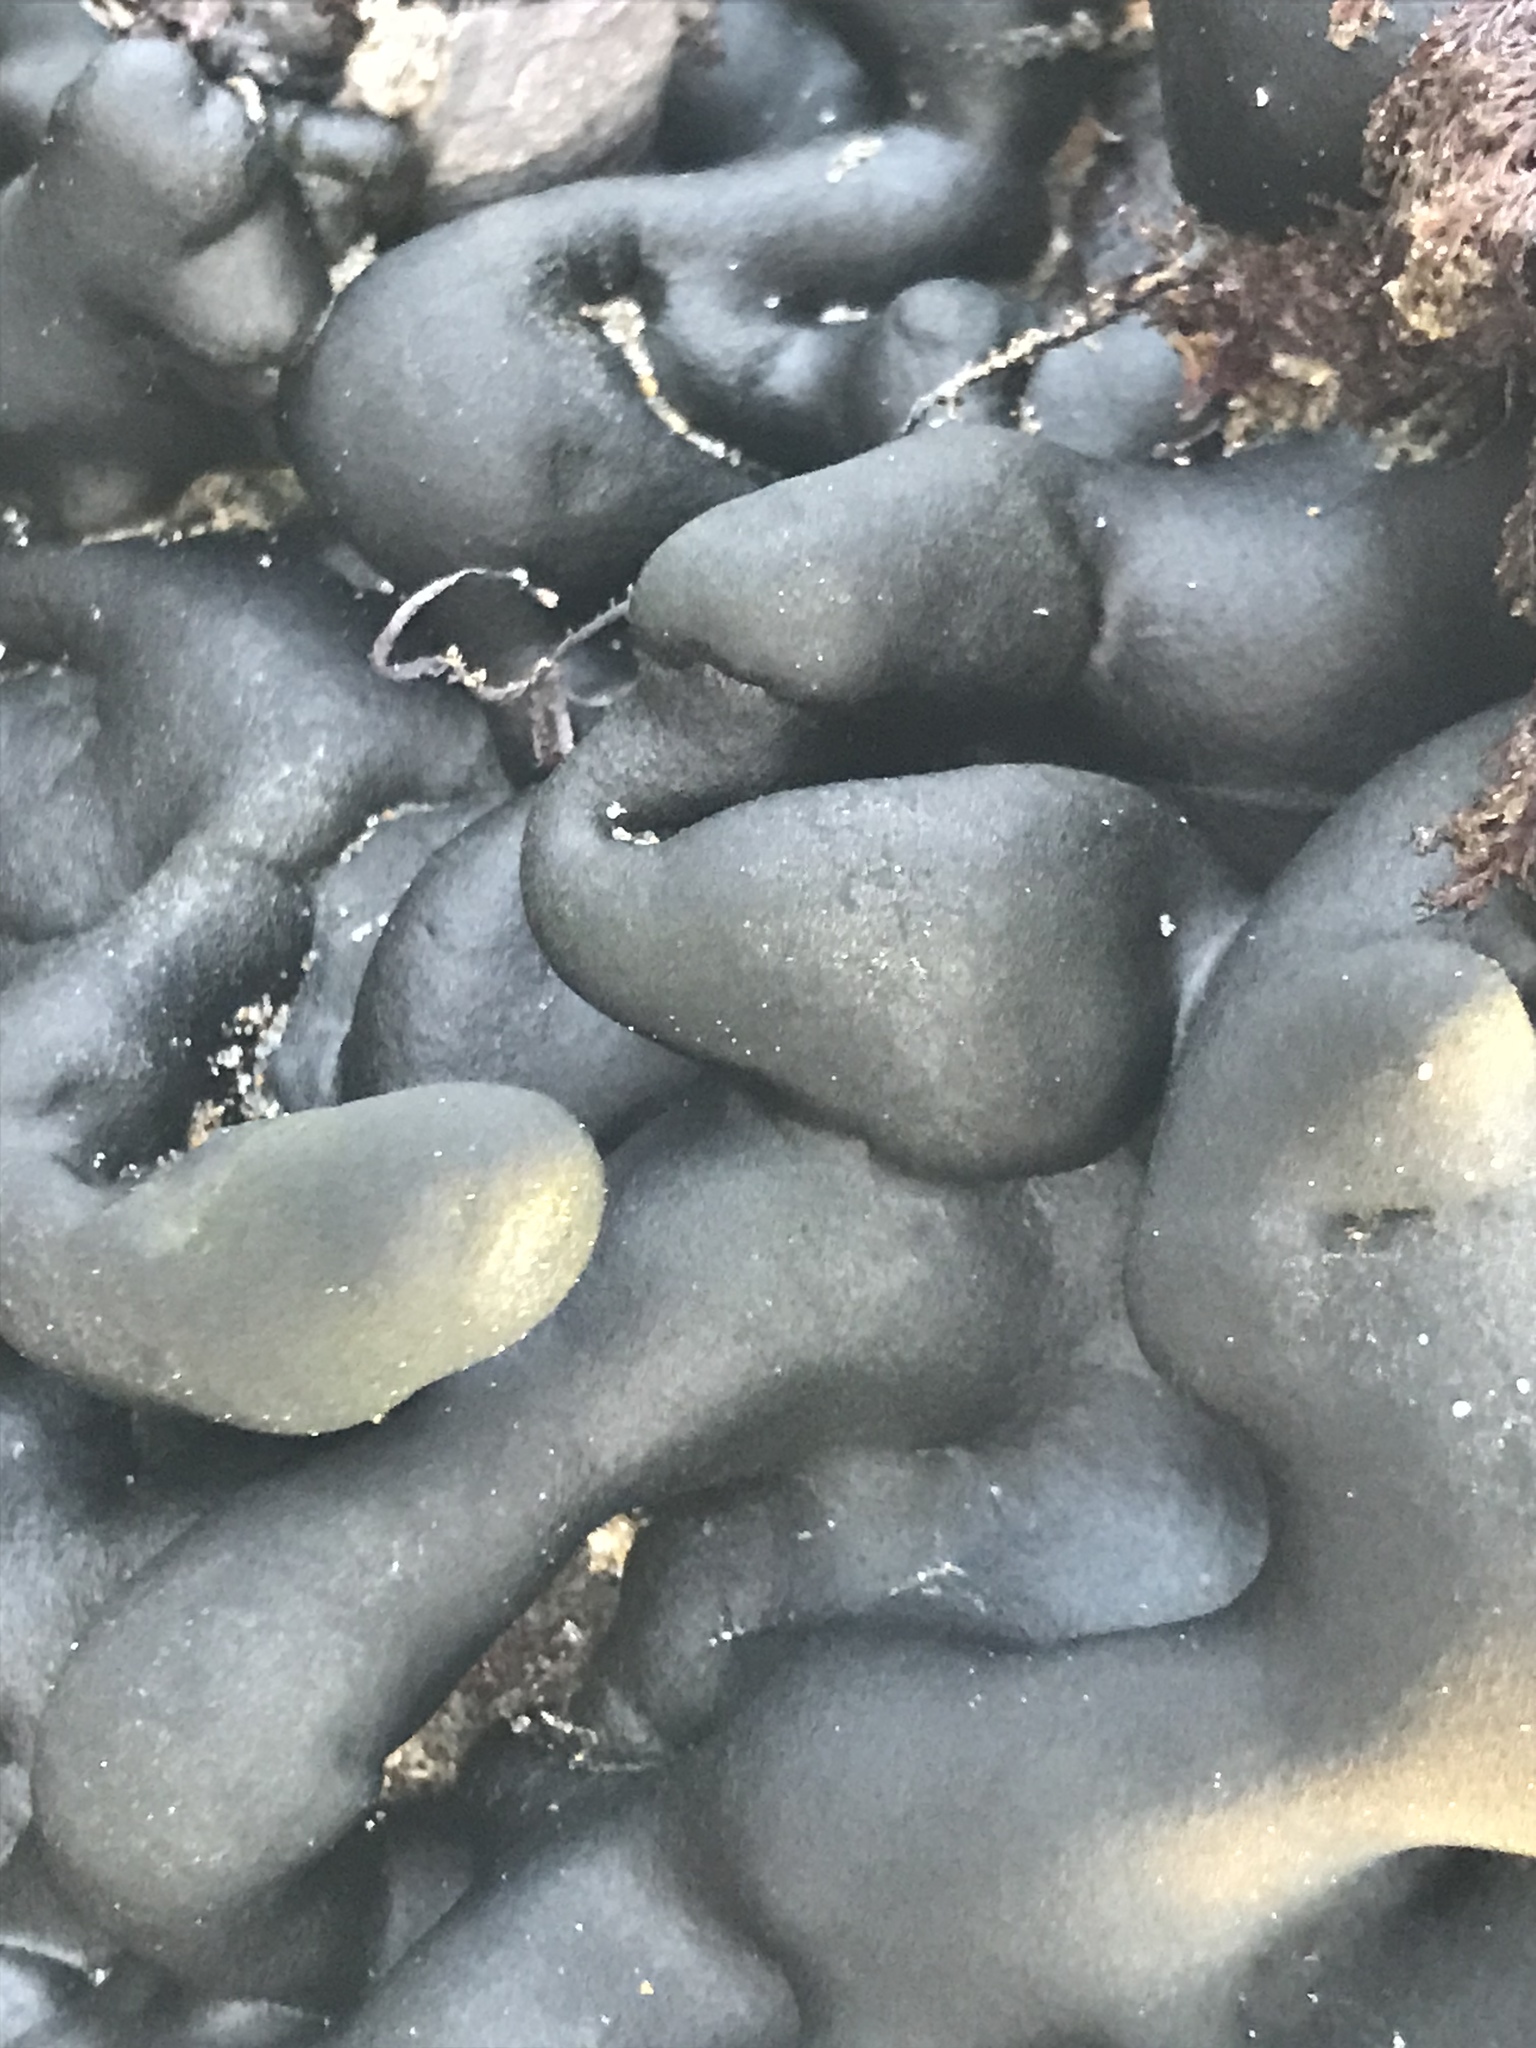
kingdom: Plantae
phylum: Chlorophyta
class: Ulvophyceae
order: Bryopsidales
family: Codiaceae
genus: Codium
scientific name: Codium setchellii
